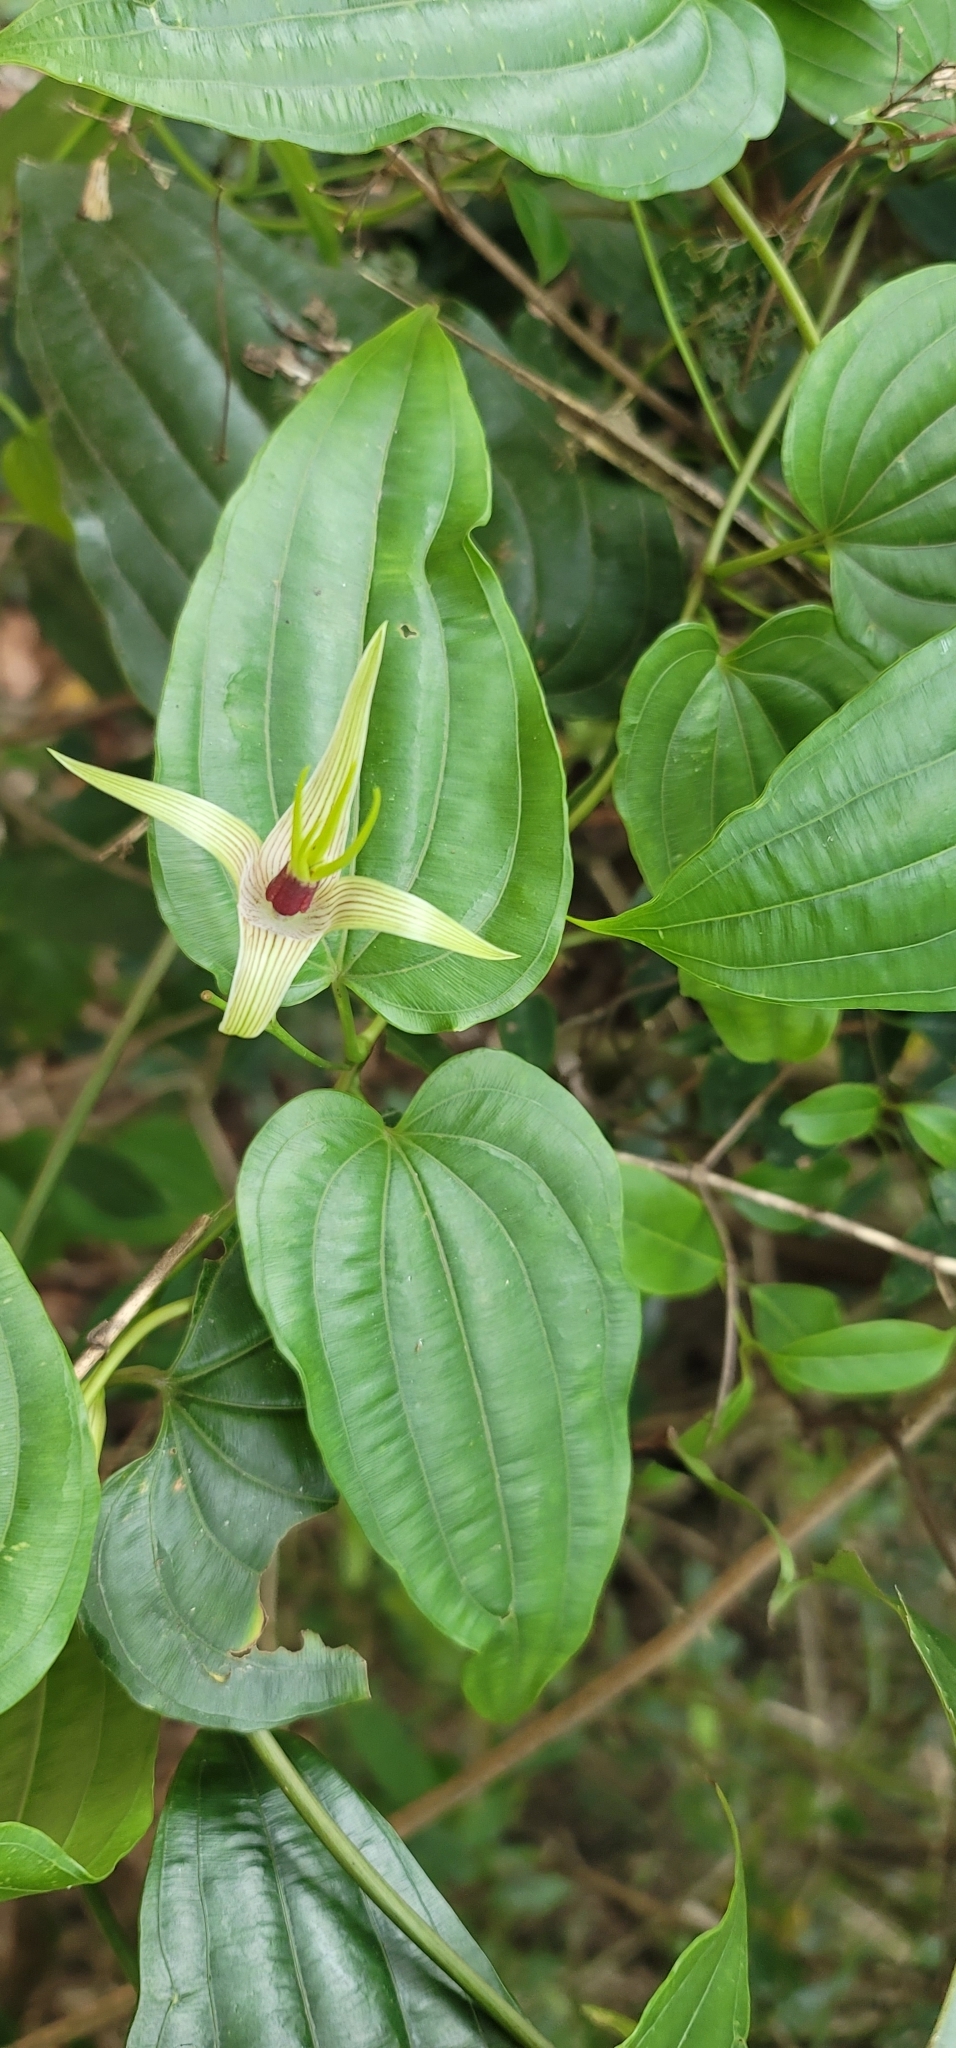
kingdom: Plantae
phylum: Tracheophyta
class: Liliopsida
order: Pandanales
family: Stemonaceae
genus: Stemona
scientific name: Stemona tuberosa
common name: Stemona
